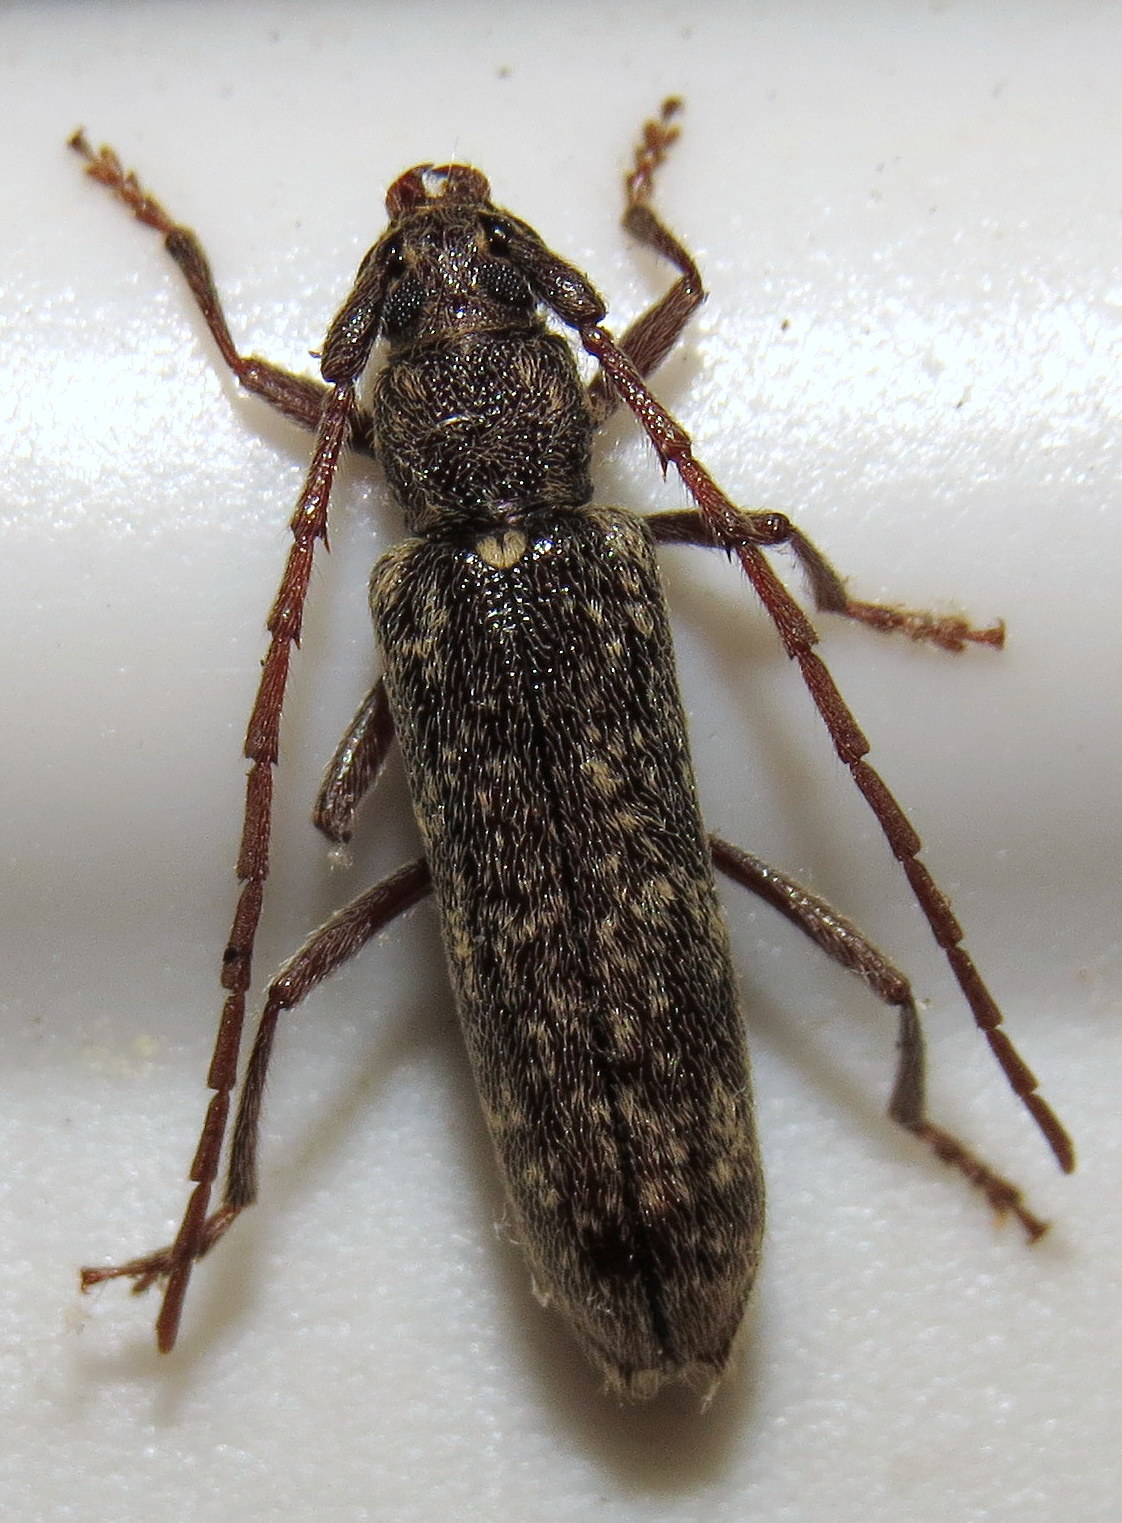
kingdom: Animalia
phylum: Arthropoda
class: Insecta
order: Coleoptera
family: Cerambycidae
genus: Anelaphus
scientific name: Anelaphus villosus
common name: Twig pruner
